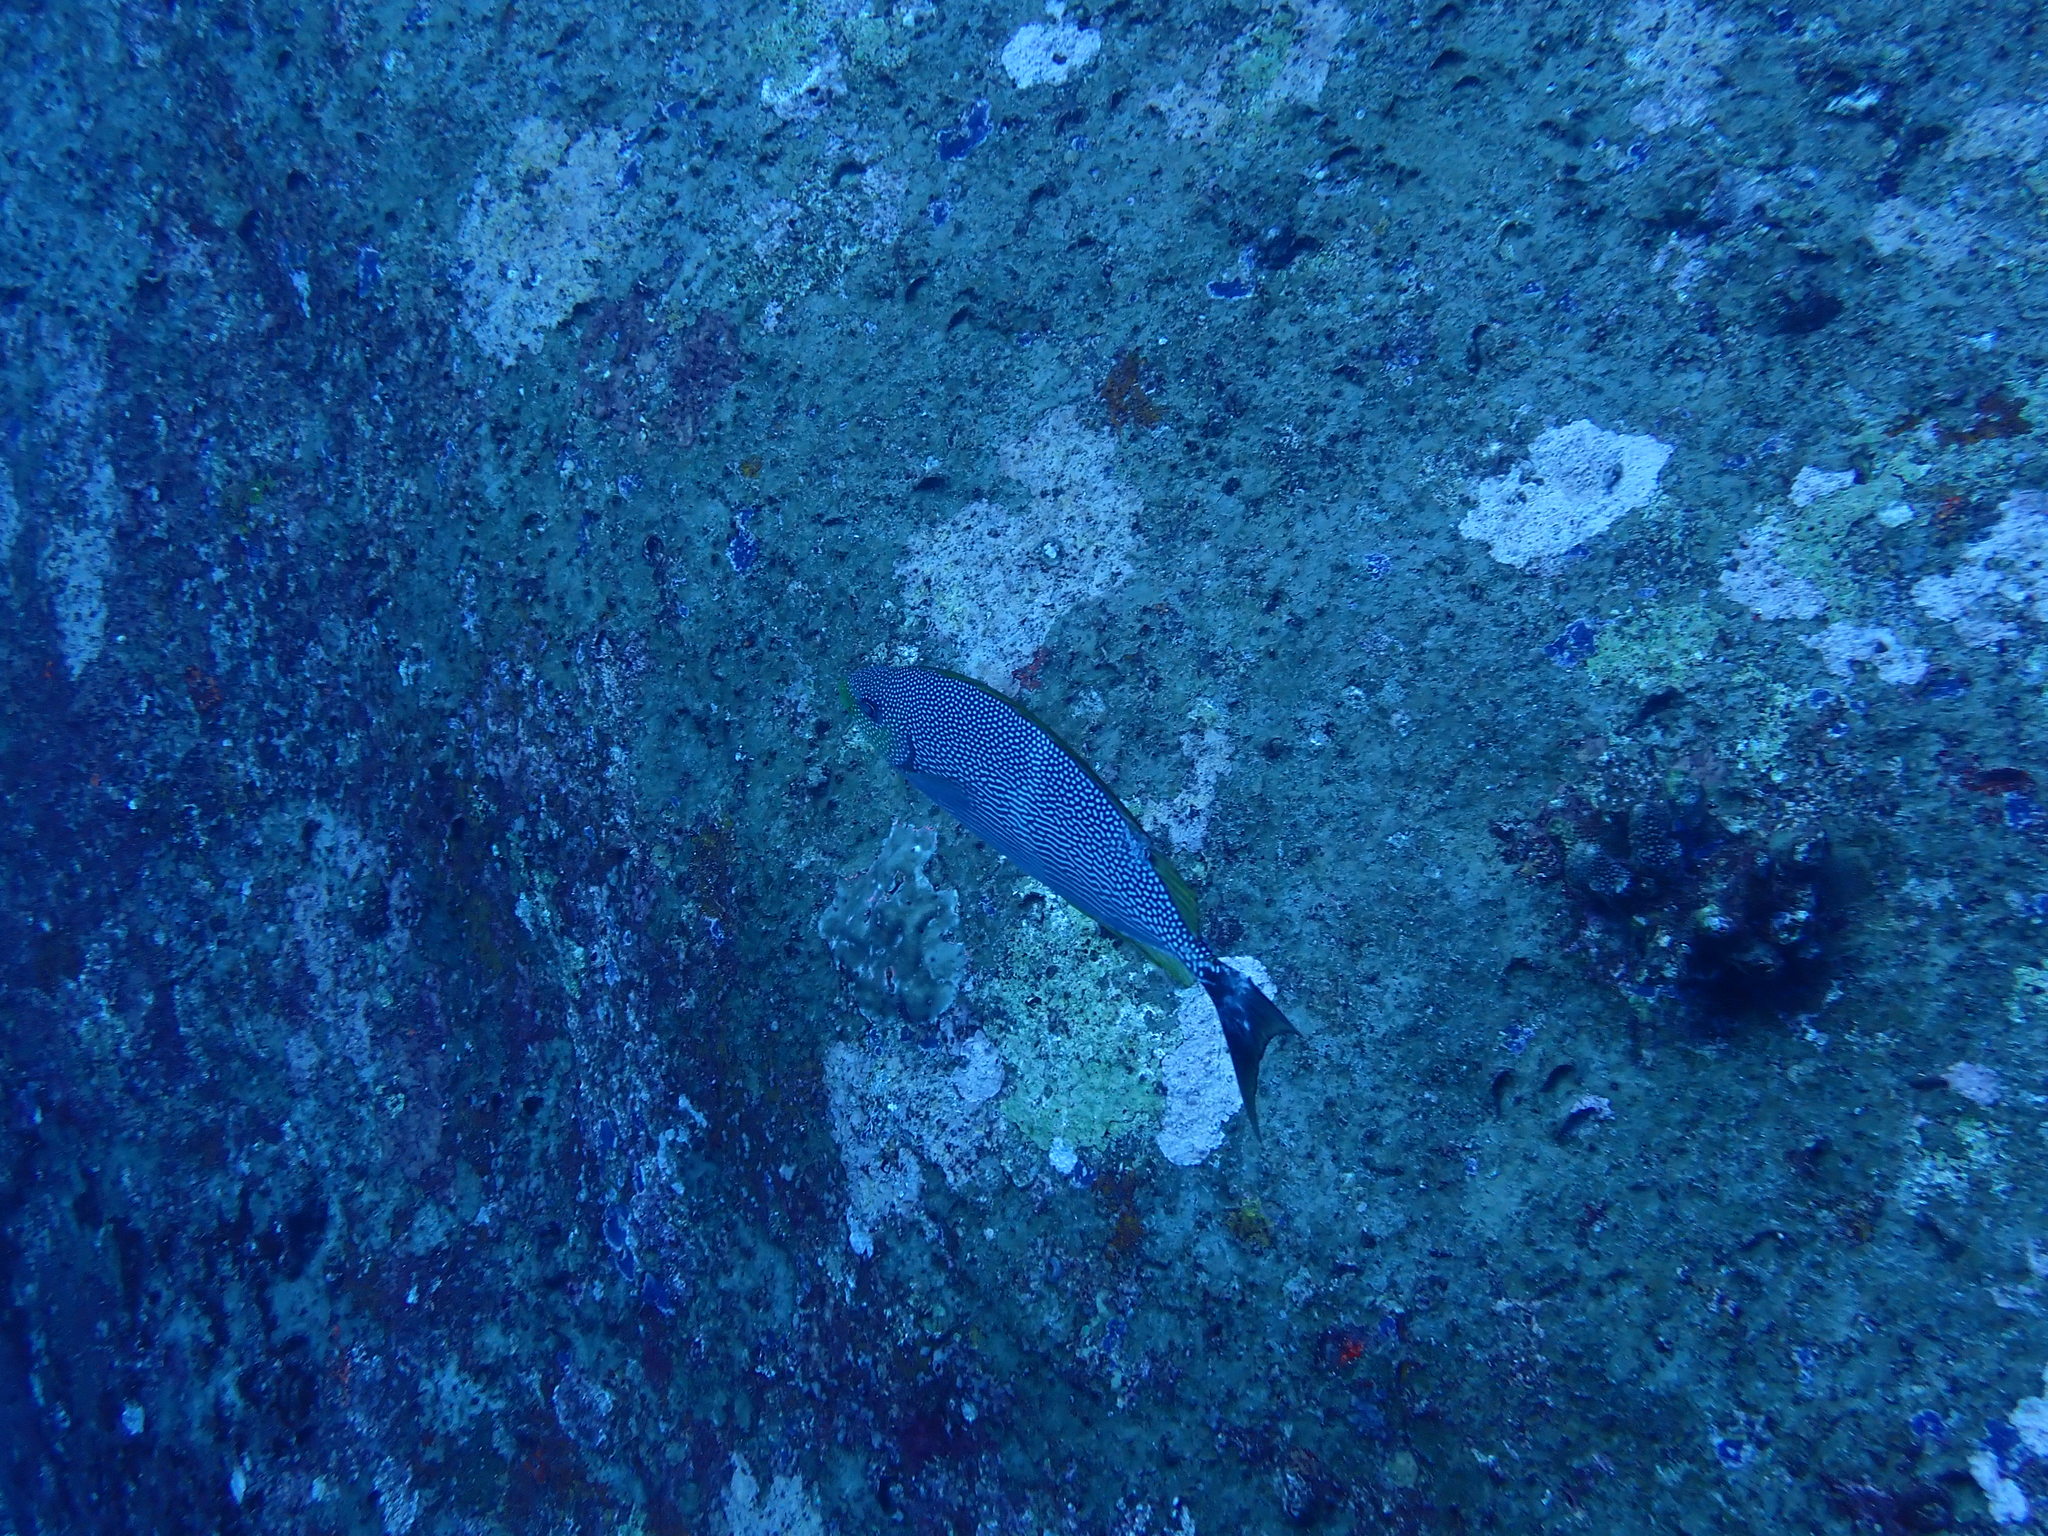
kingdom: Animalia
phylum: Chordata
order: Perciformes
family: Siganidae
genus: Siganus
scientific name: Siganus javus
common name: Java rabbitfish
